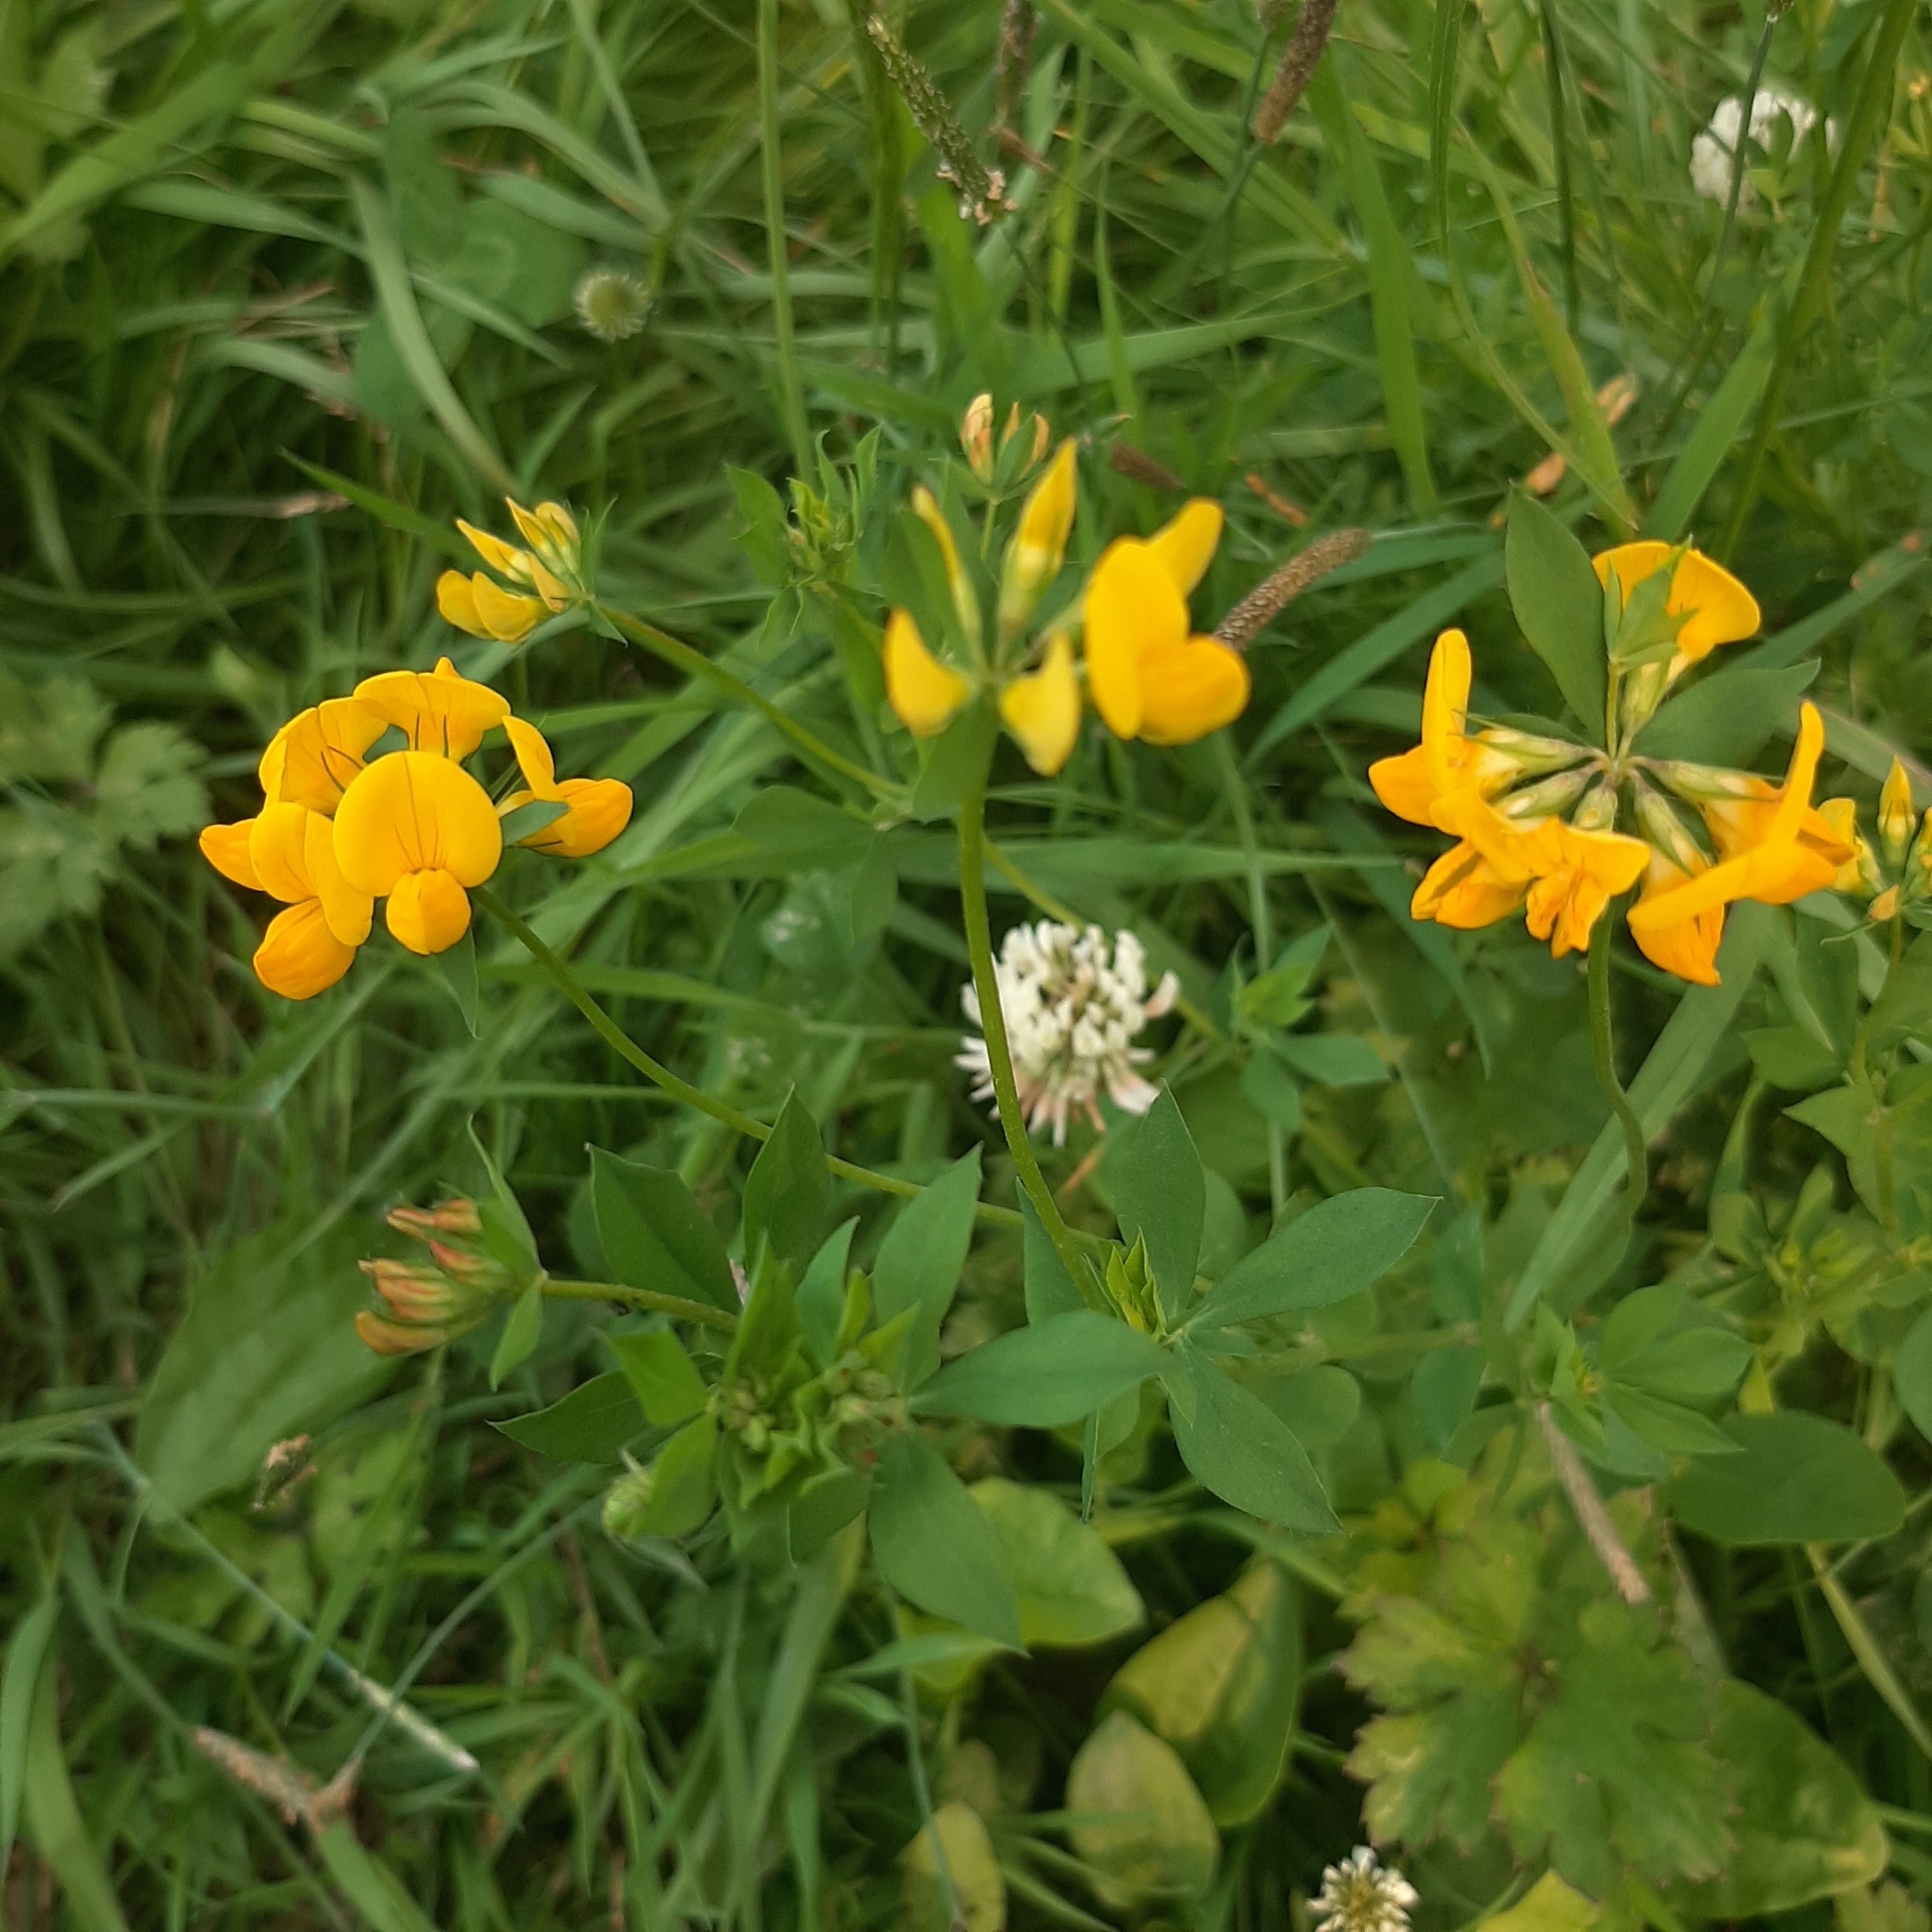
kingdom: Plantae
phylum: Tracheophyta
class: Magnoliopsida
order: Fabales
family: Fabaceae
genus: Lotus
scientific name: Lotus corniculatus
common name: Common bird's-foot-trefoil
